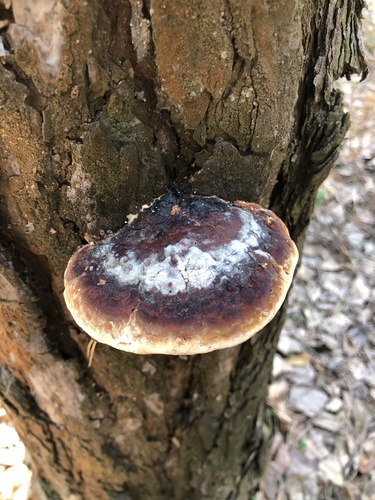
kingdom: Fungi
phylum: Basidiomycota
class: Agaricomycetes
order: Polyporales
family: Fomitopsidaceae
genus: Fomitopsis
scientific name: Fomitopsis pinicola
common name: Red-belted bracket
